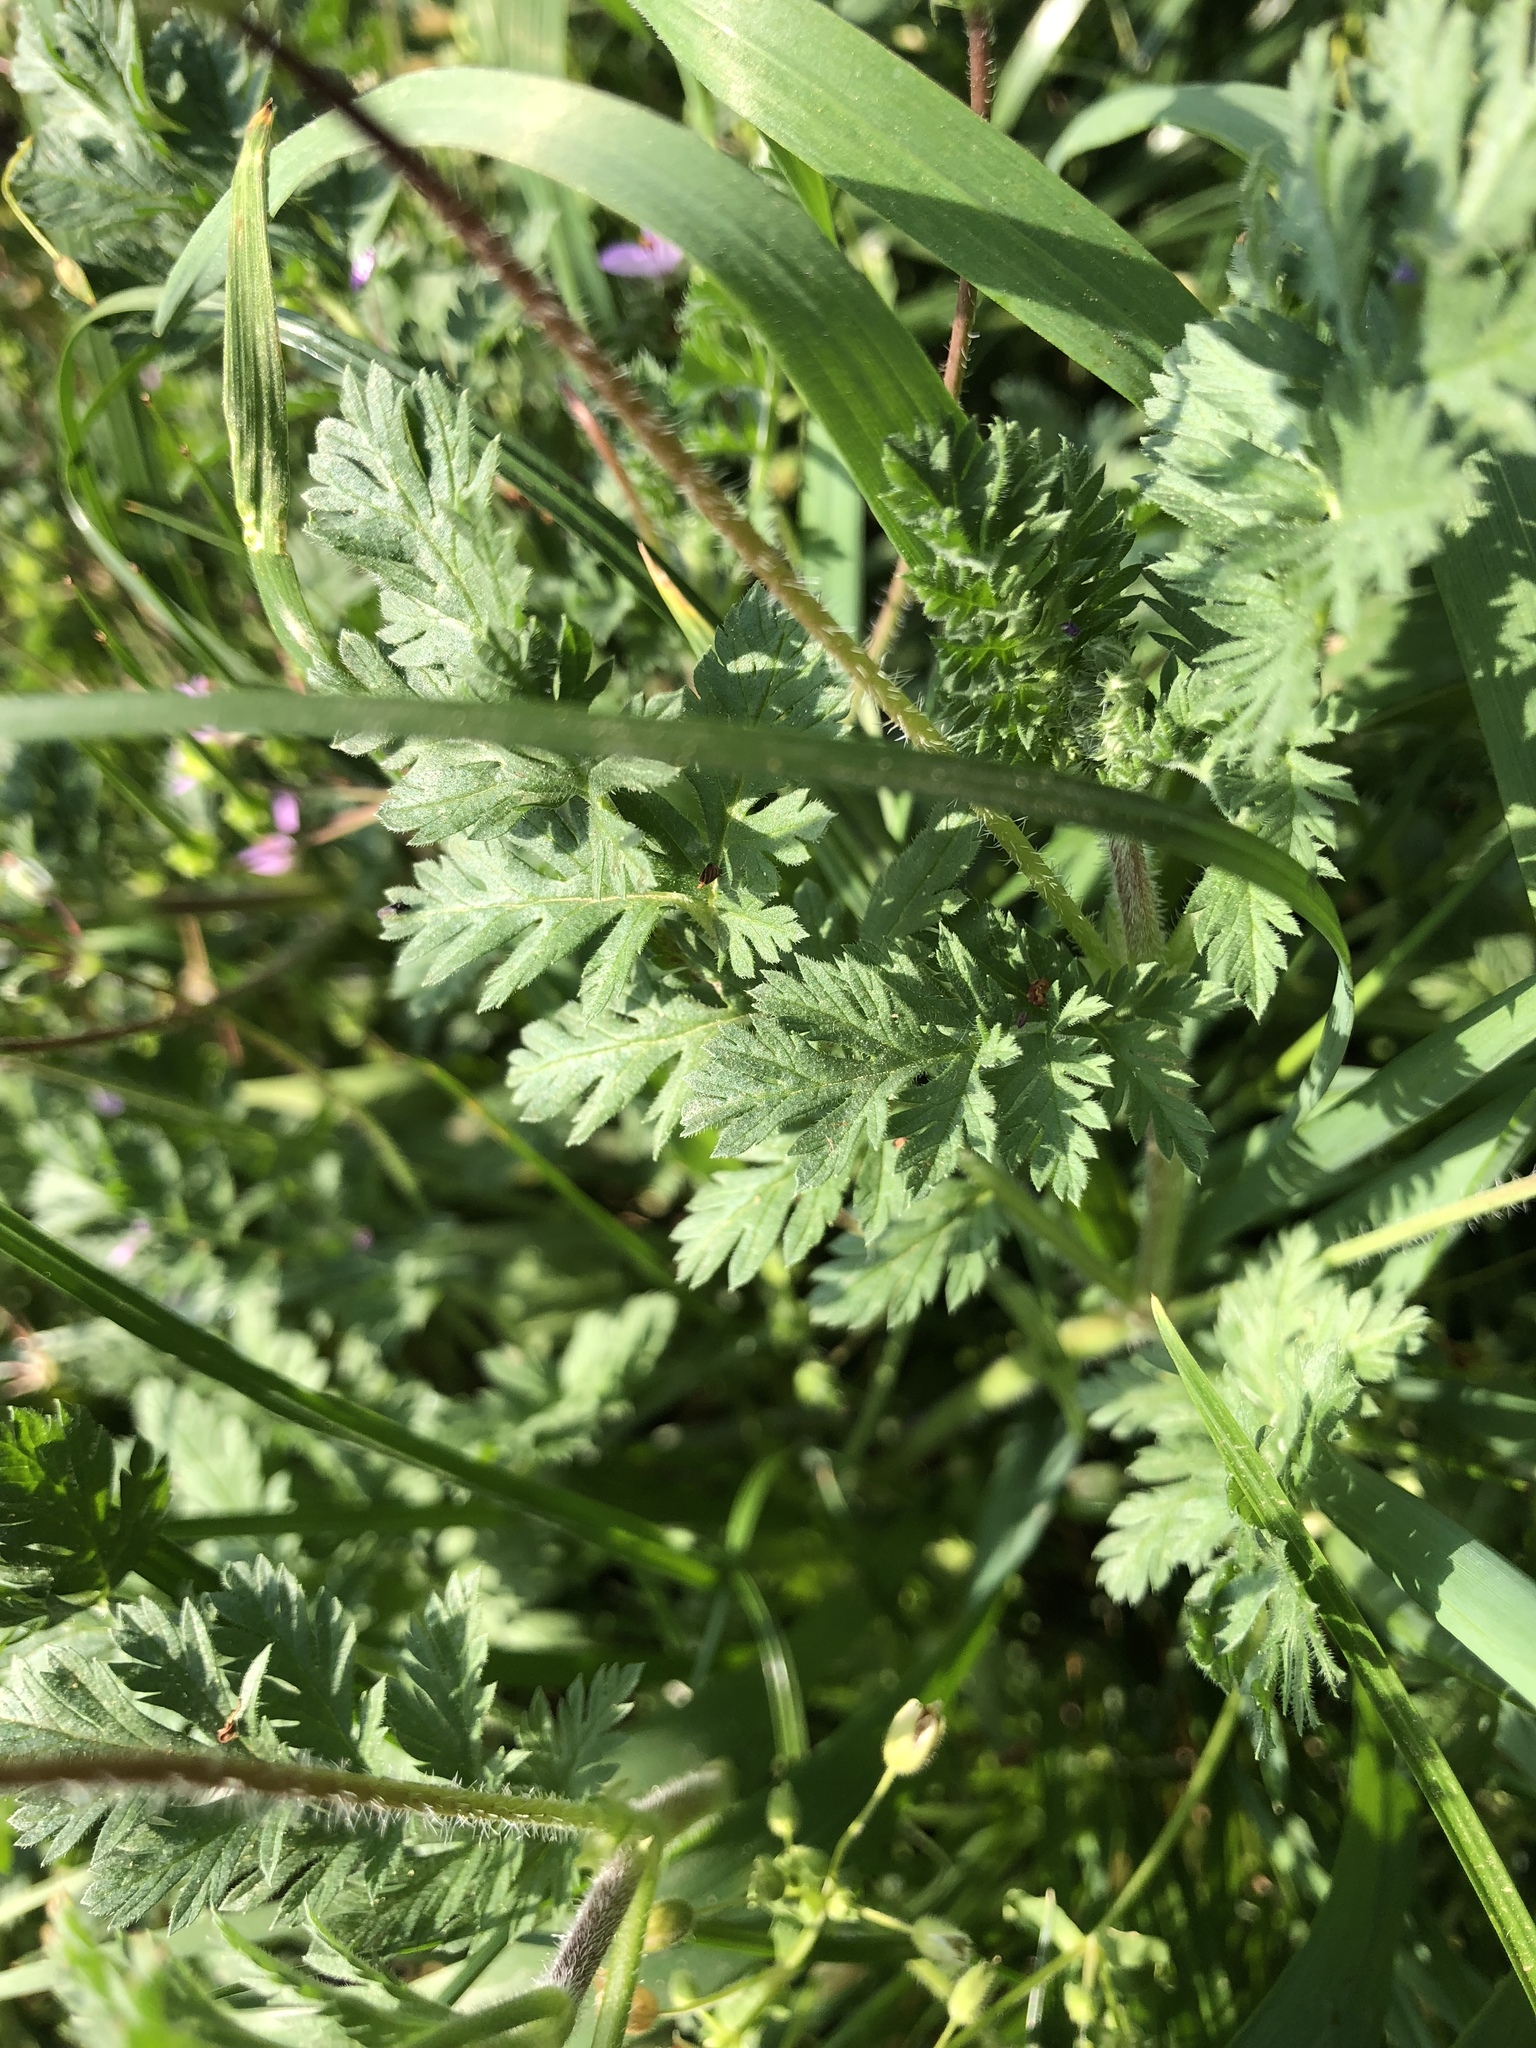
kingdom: Plantae
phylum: Tracheophyta
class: Magnoliopsida
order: Geraniales
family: Geraniaceae
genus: Erodium
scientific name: Erodium cicutarium
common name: Common stork's-bill
